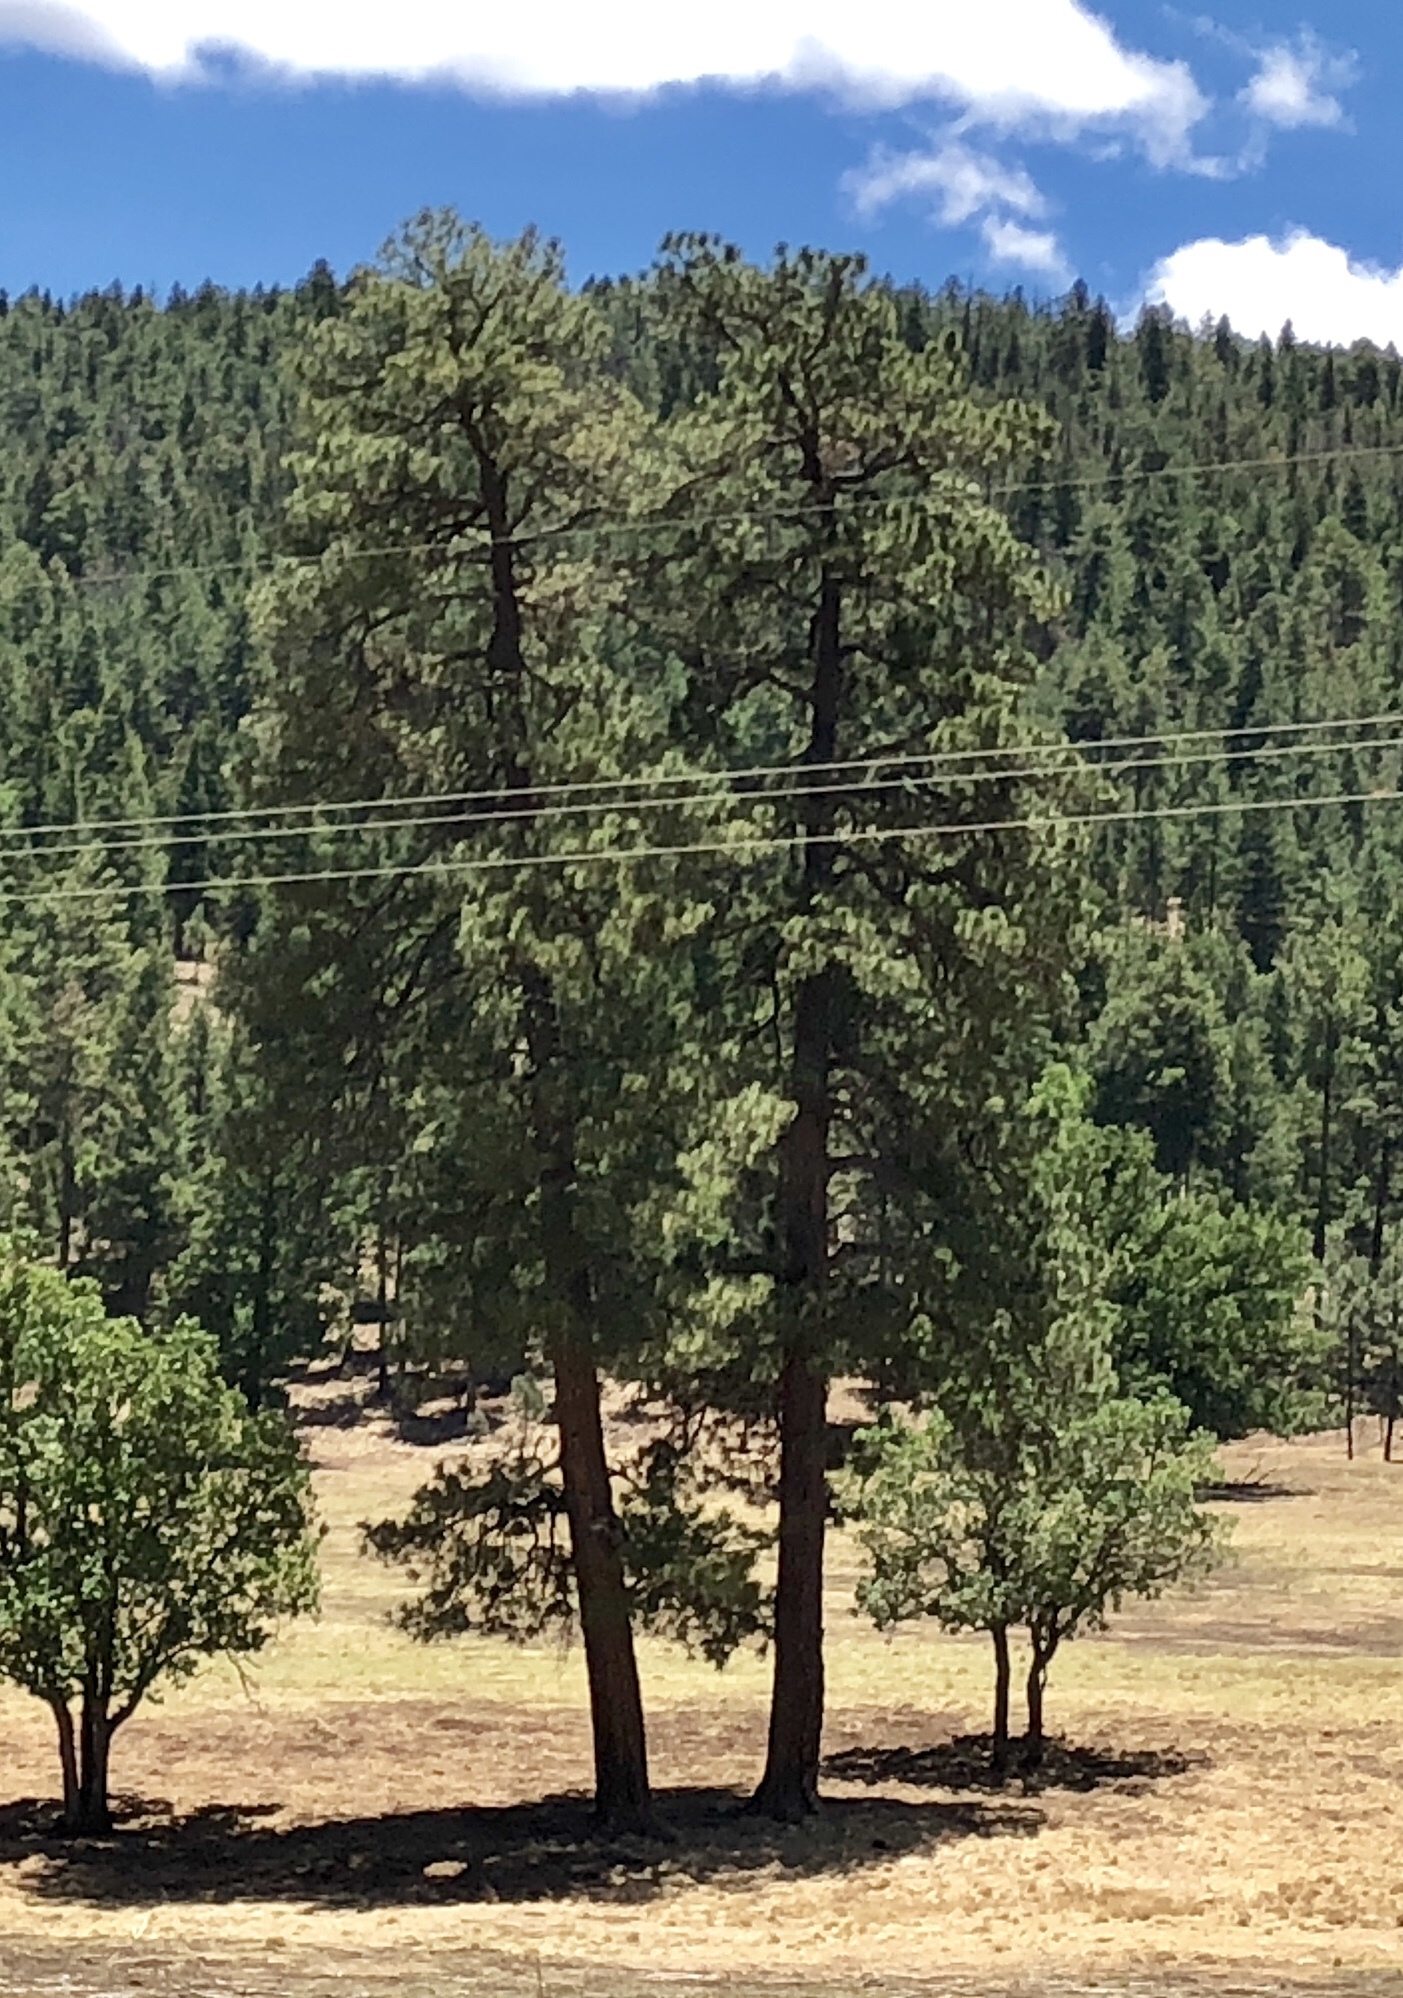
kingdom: Plantae
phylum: Tracheophyta
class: Pinopsida
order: Pinales
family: Pinaceae
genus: Pinus
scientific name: Pinus ponderosa
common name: Western yellow-pine
